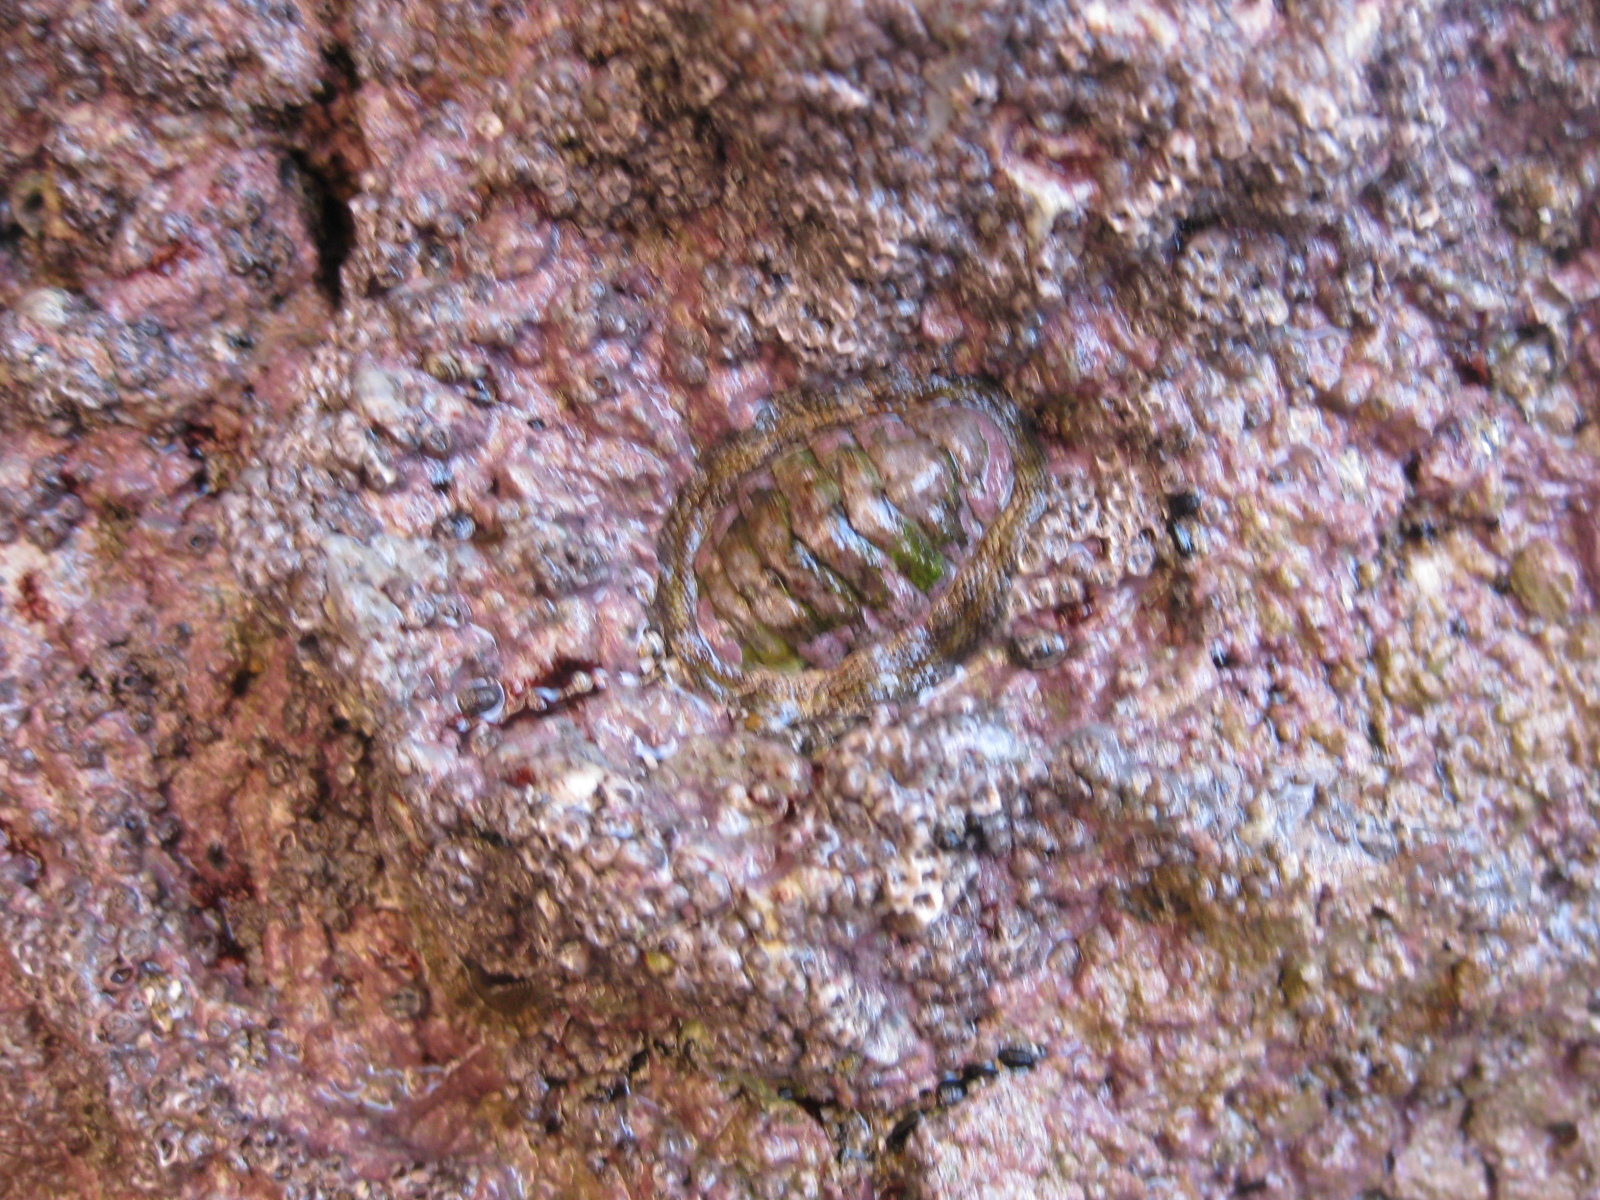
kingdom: Animalia
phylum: Mollusca
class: Polyplacophora
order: Chitonida
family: Chitonidae
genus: Sypharochiton
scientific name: Sypharochiton pelliserpentis
